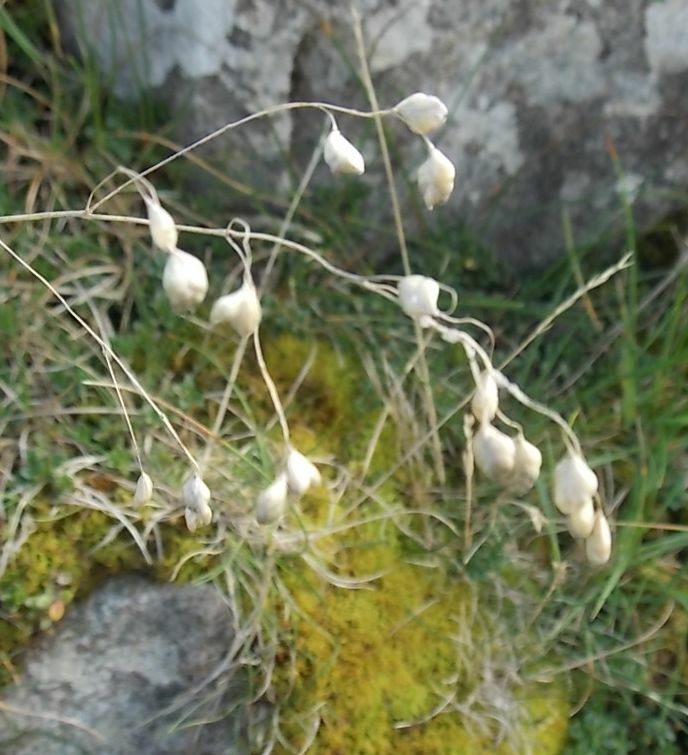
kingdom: Plantae
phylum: Tracheophyta
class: Liliopsida
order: Poales
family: Poaceae
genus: Briza
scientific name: Briza media
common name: Quaking grass
